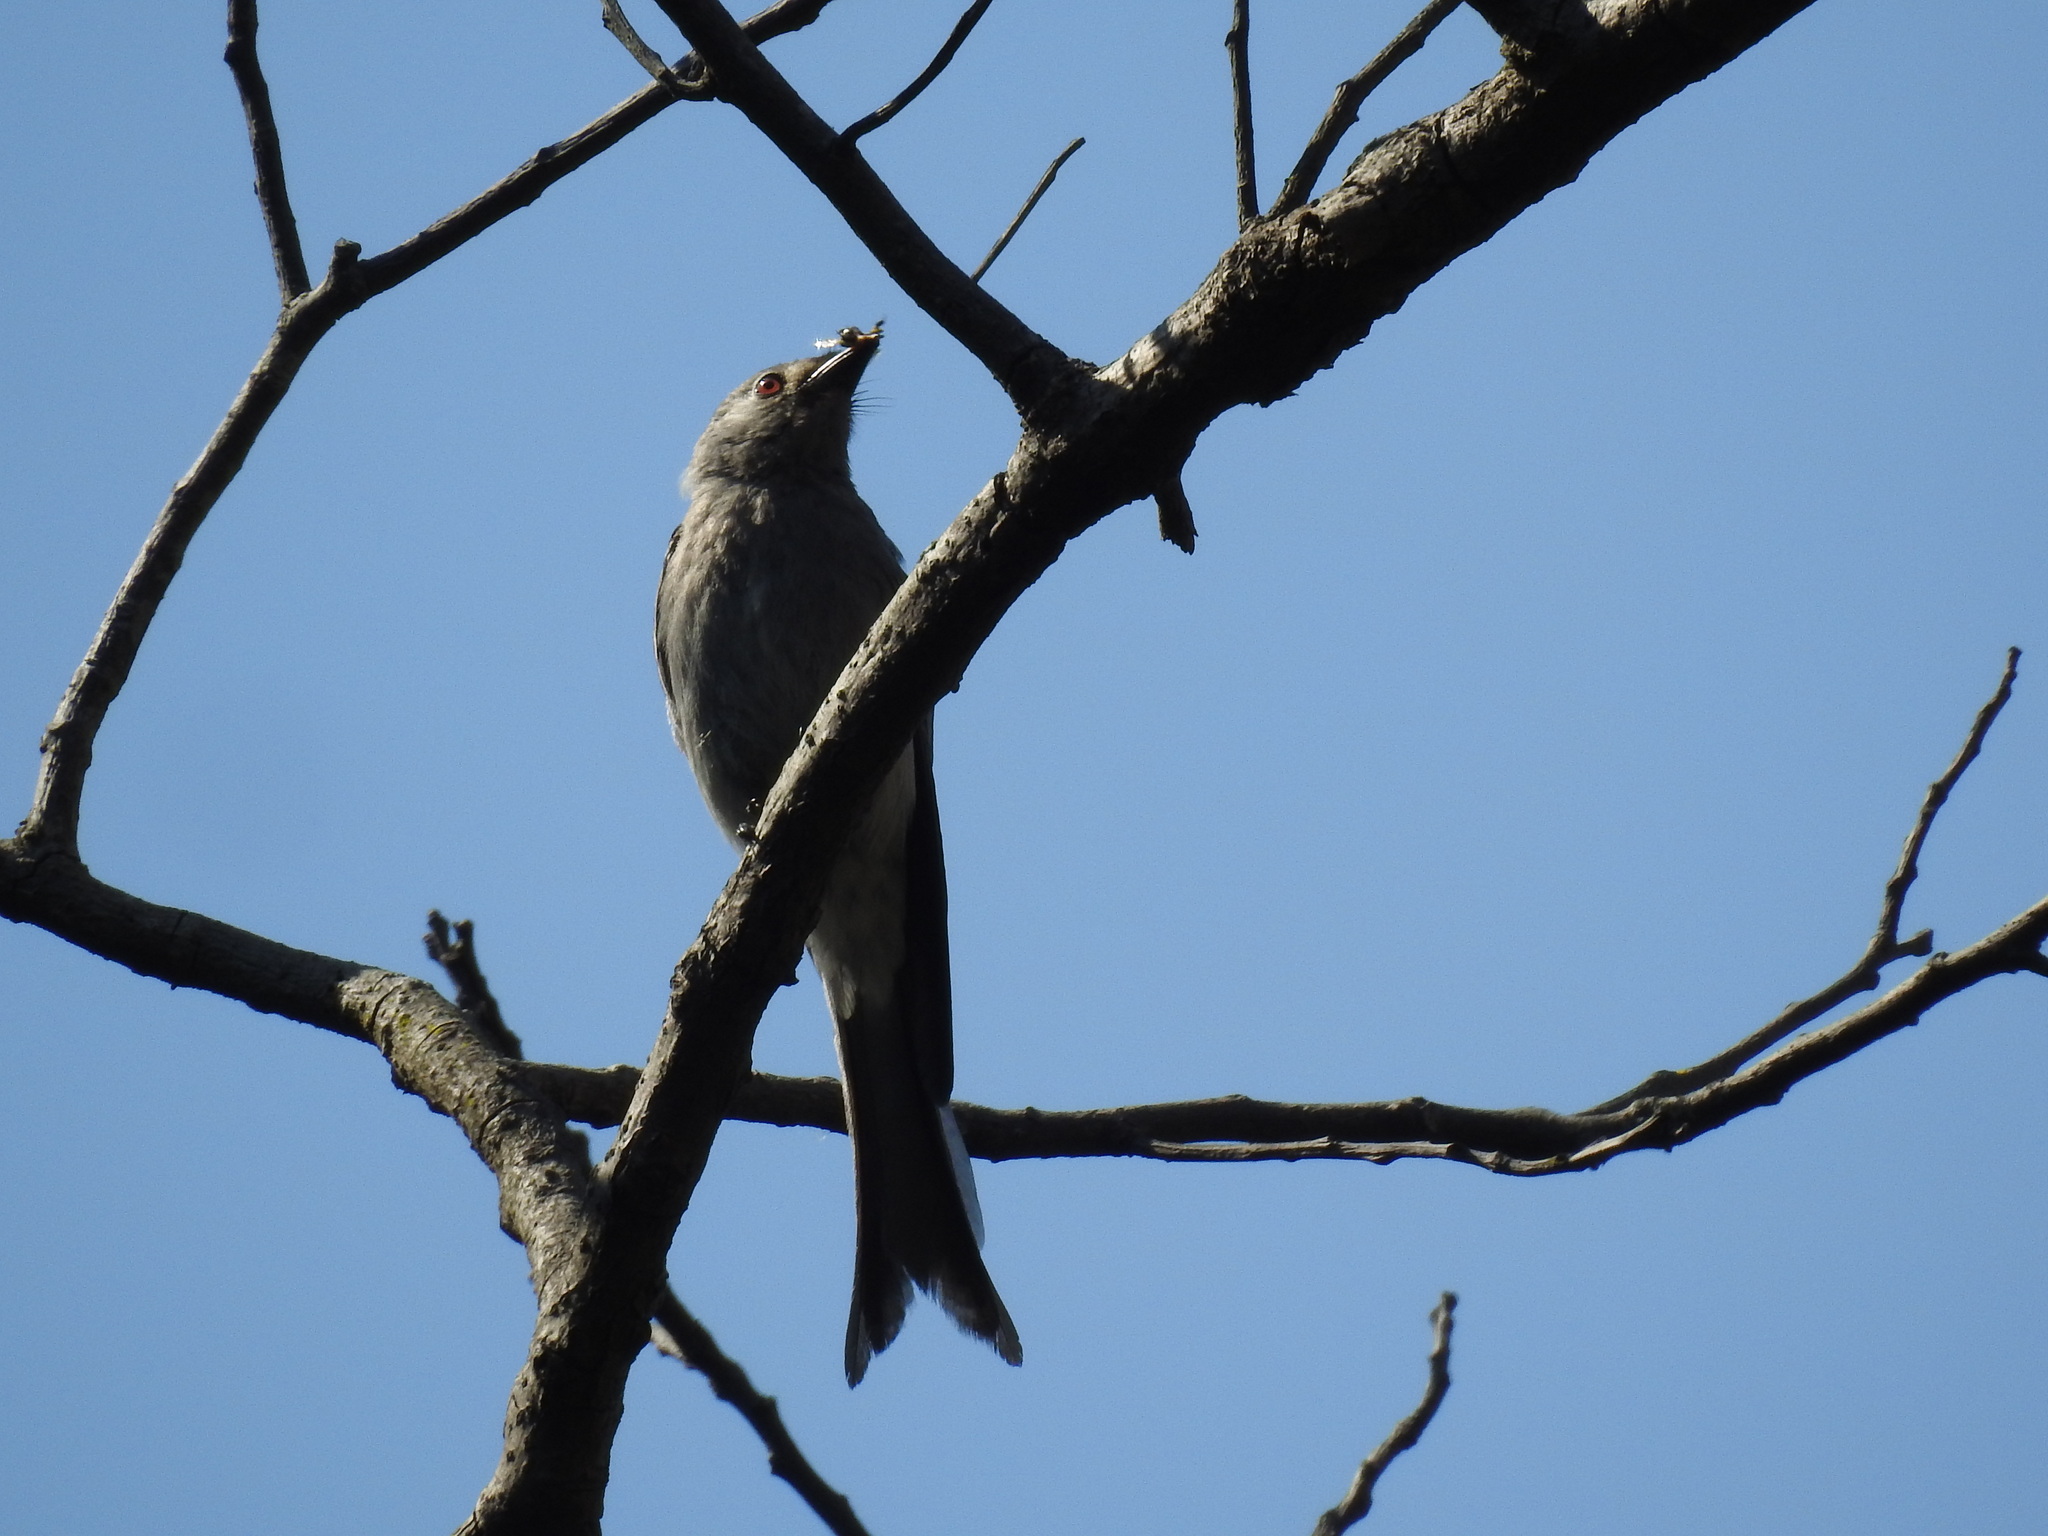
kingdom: Animalia
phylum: Chordata
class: Aves
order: Passeriformes
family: Dicruridae
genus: Dicrurus
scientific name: Dicrurus leucophaeus
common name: Ashy drongo
